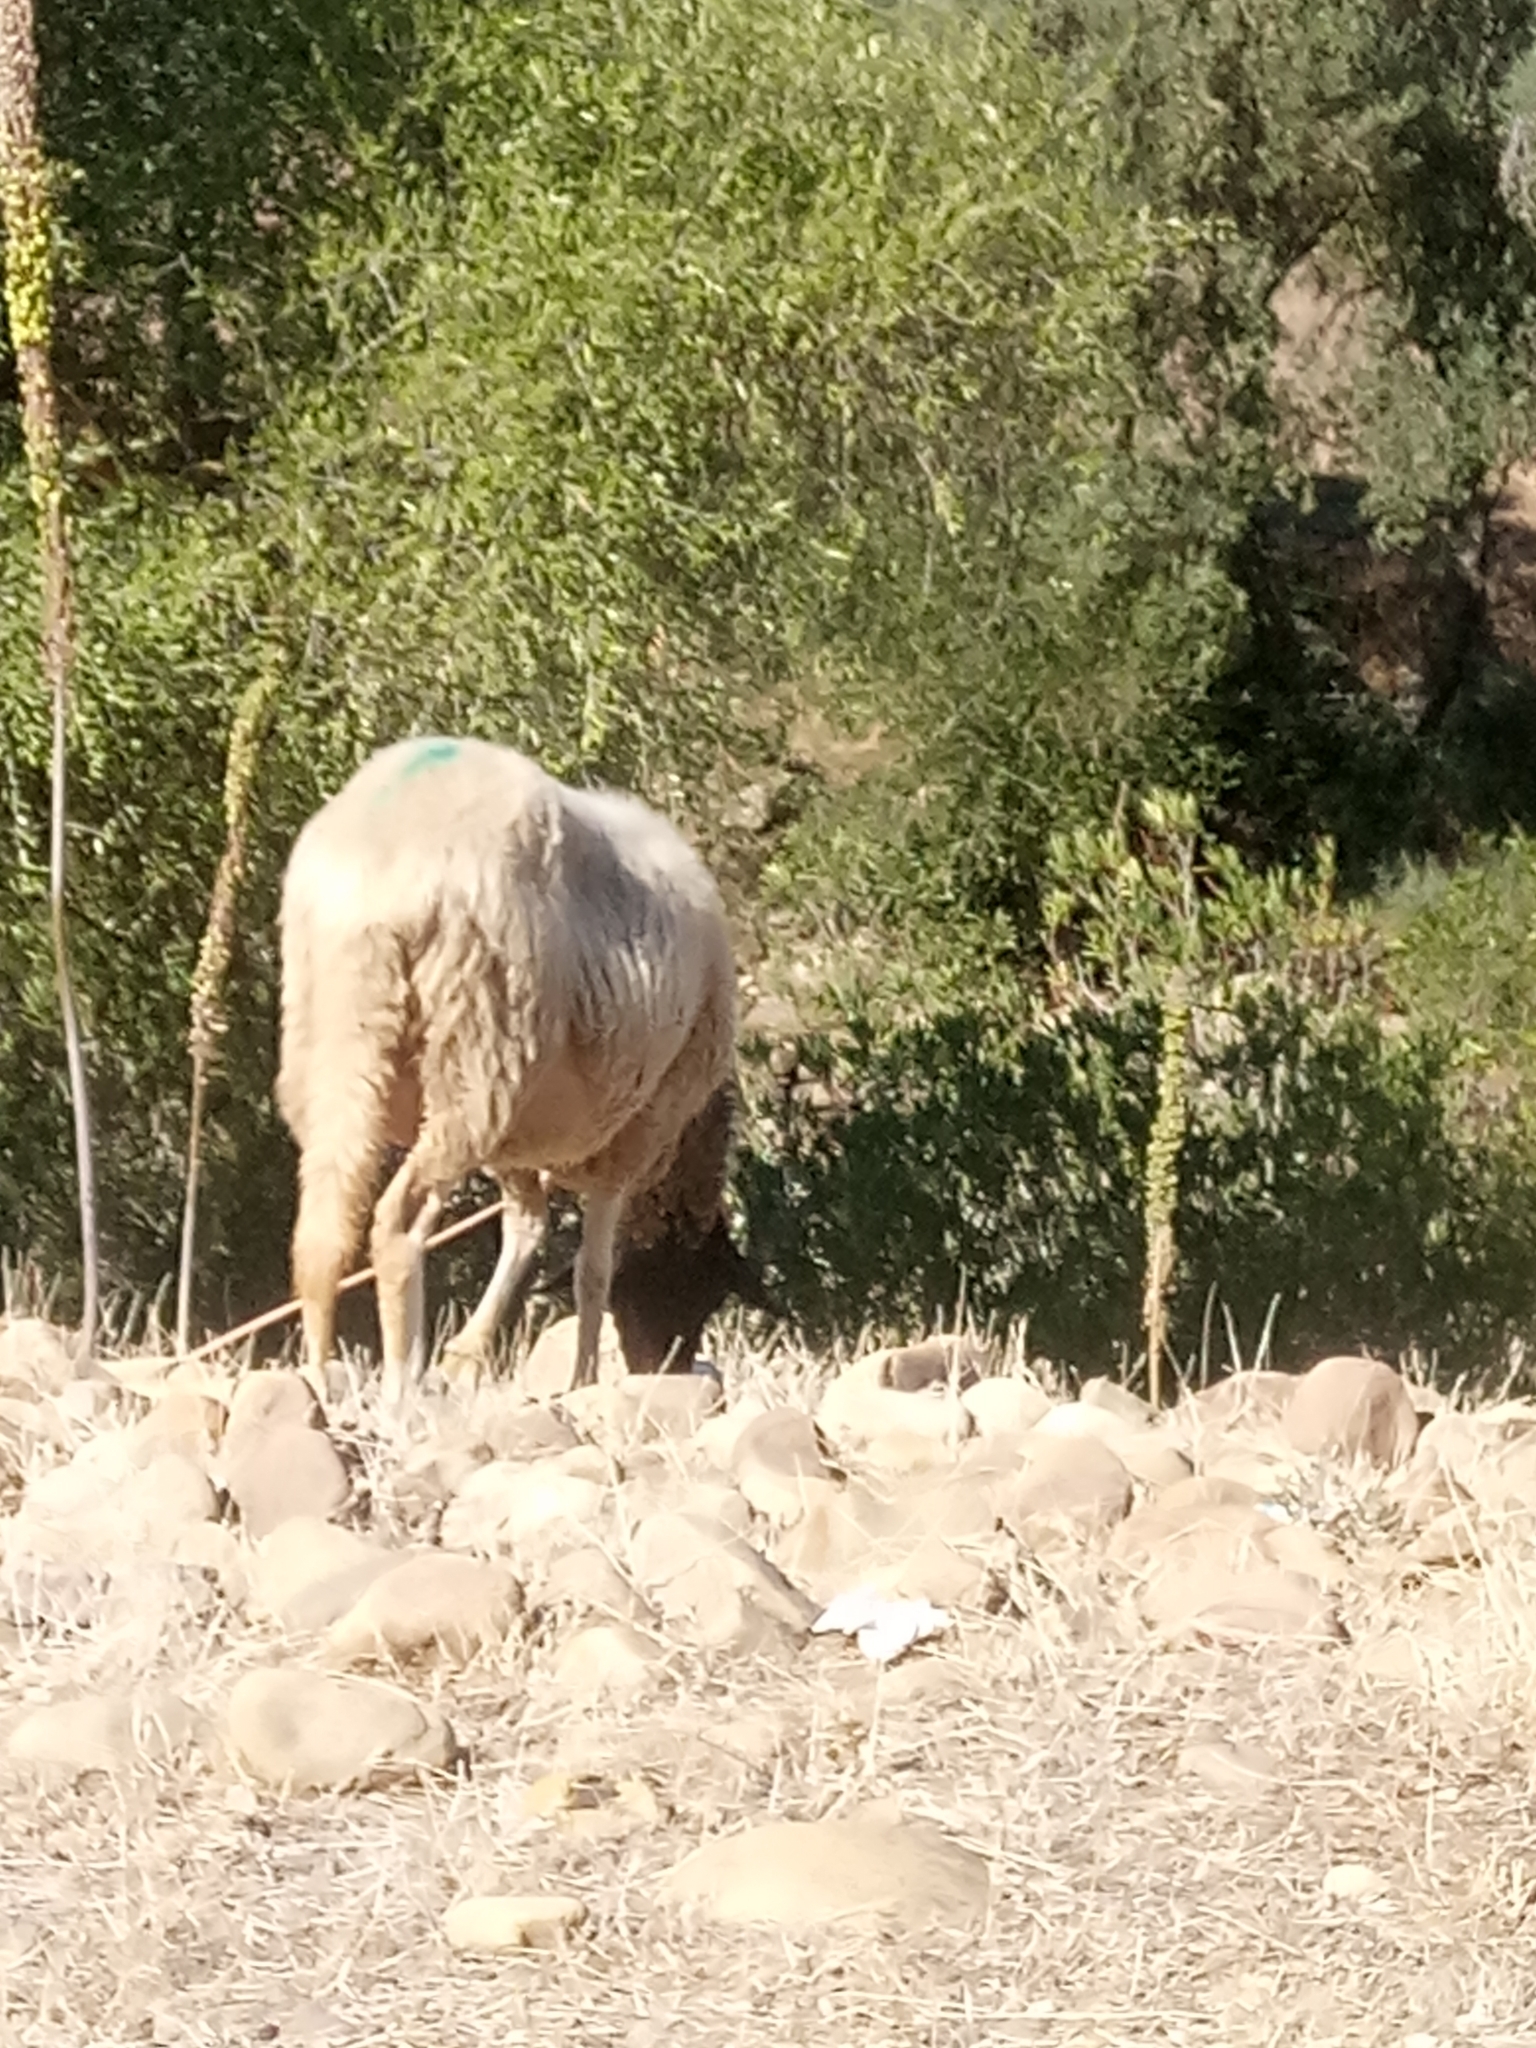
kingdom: Animalia
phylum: Chordata
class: Mammalia
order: Artiodactyla
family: Bovidae
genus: Ovis
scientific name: Ovis aries
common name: Domestic sheep
